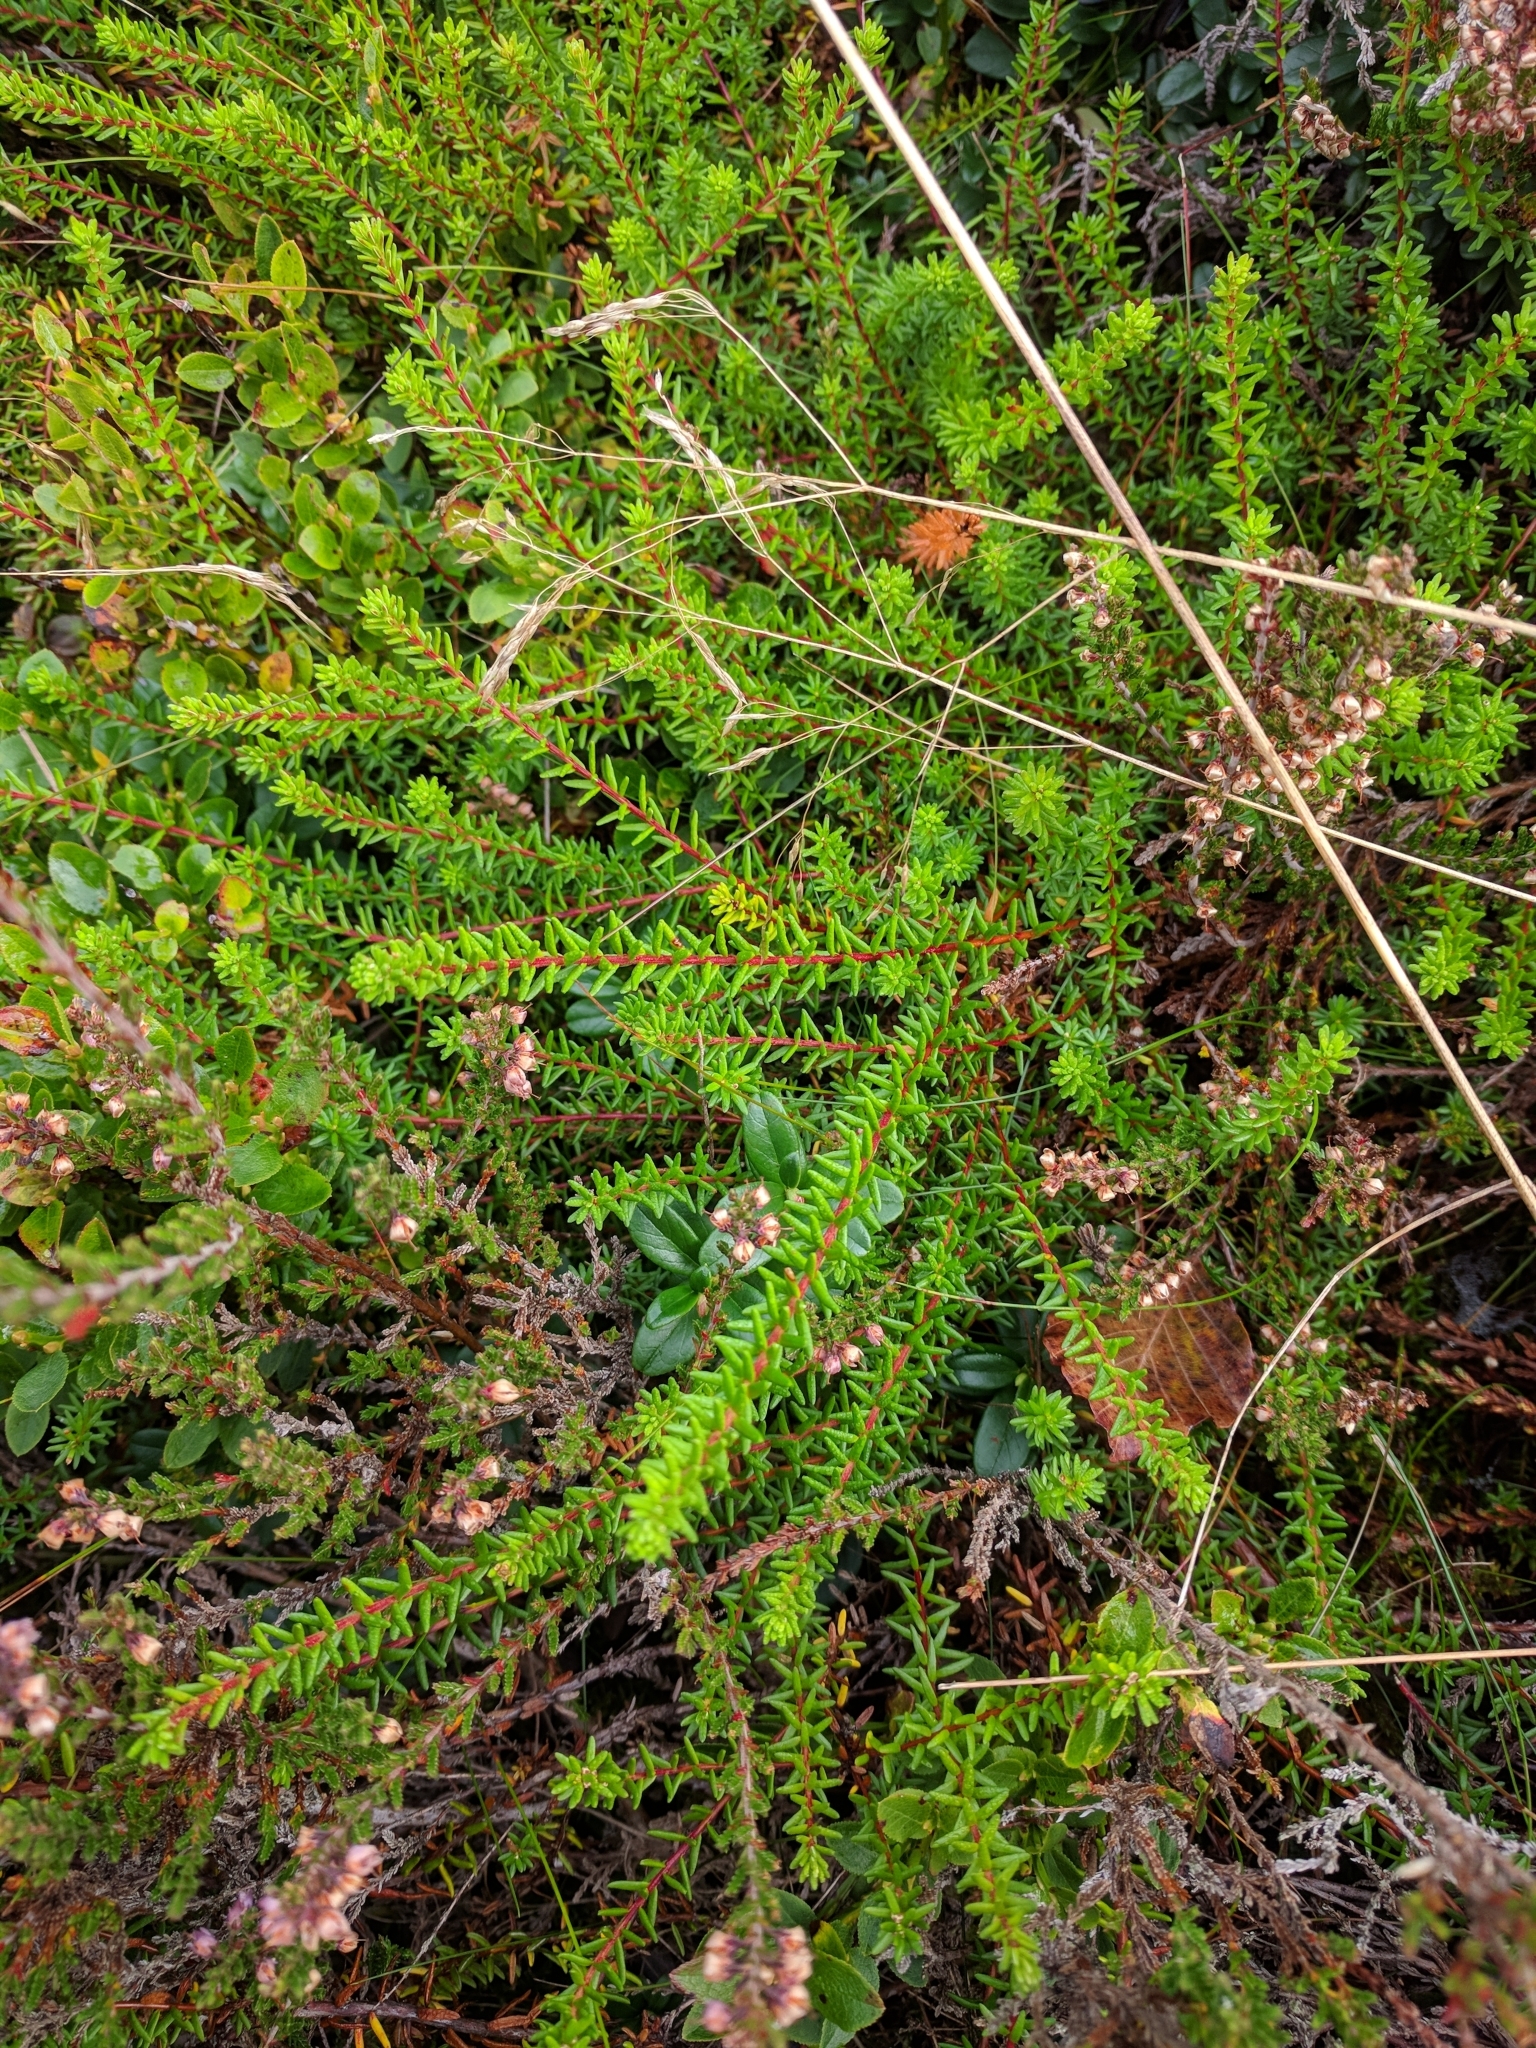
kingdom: Plantae
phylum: Tracheophyta
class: Magnoliopsida
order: Ericales
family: Ericaceae
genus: Empetrum
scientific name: Empetrum nigrum
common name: Black crowberry
